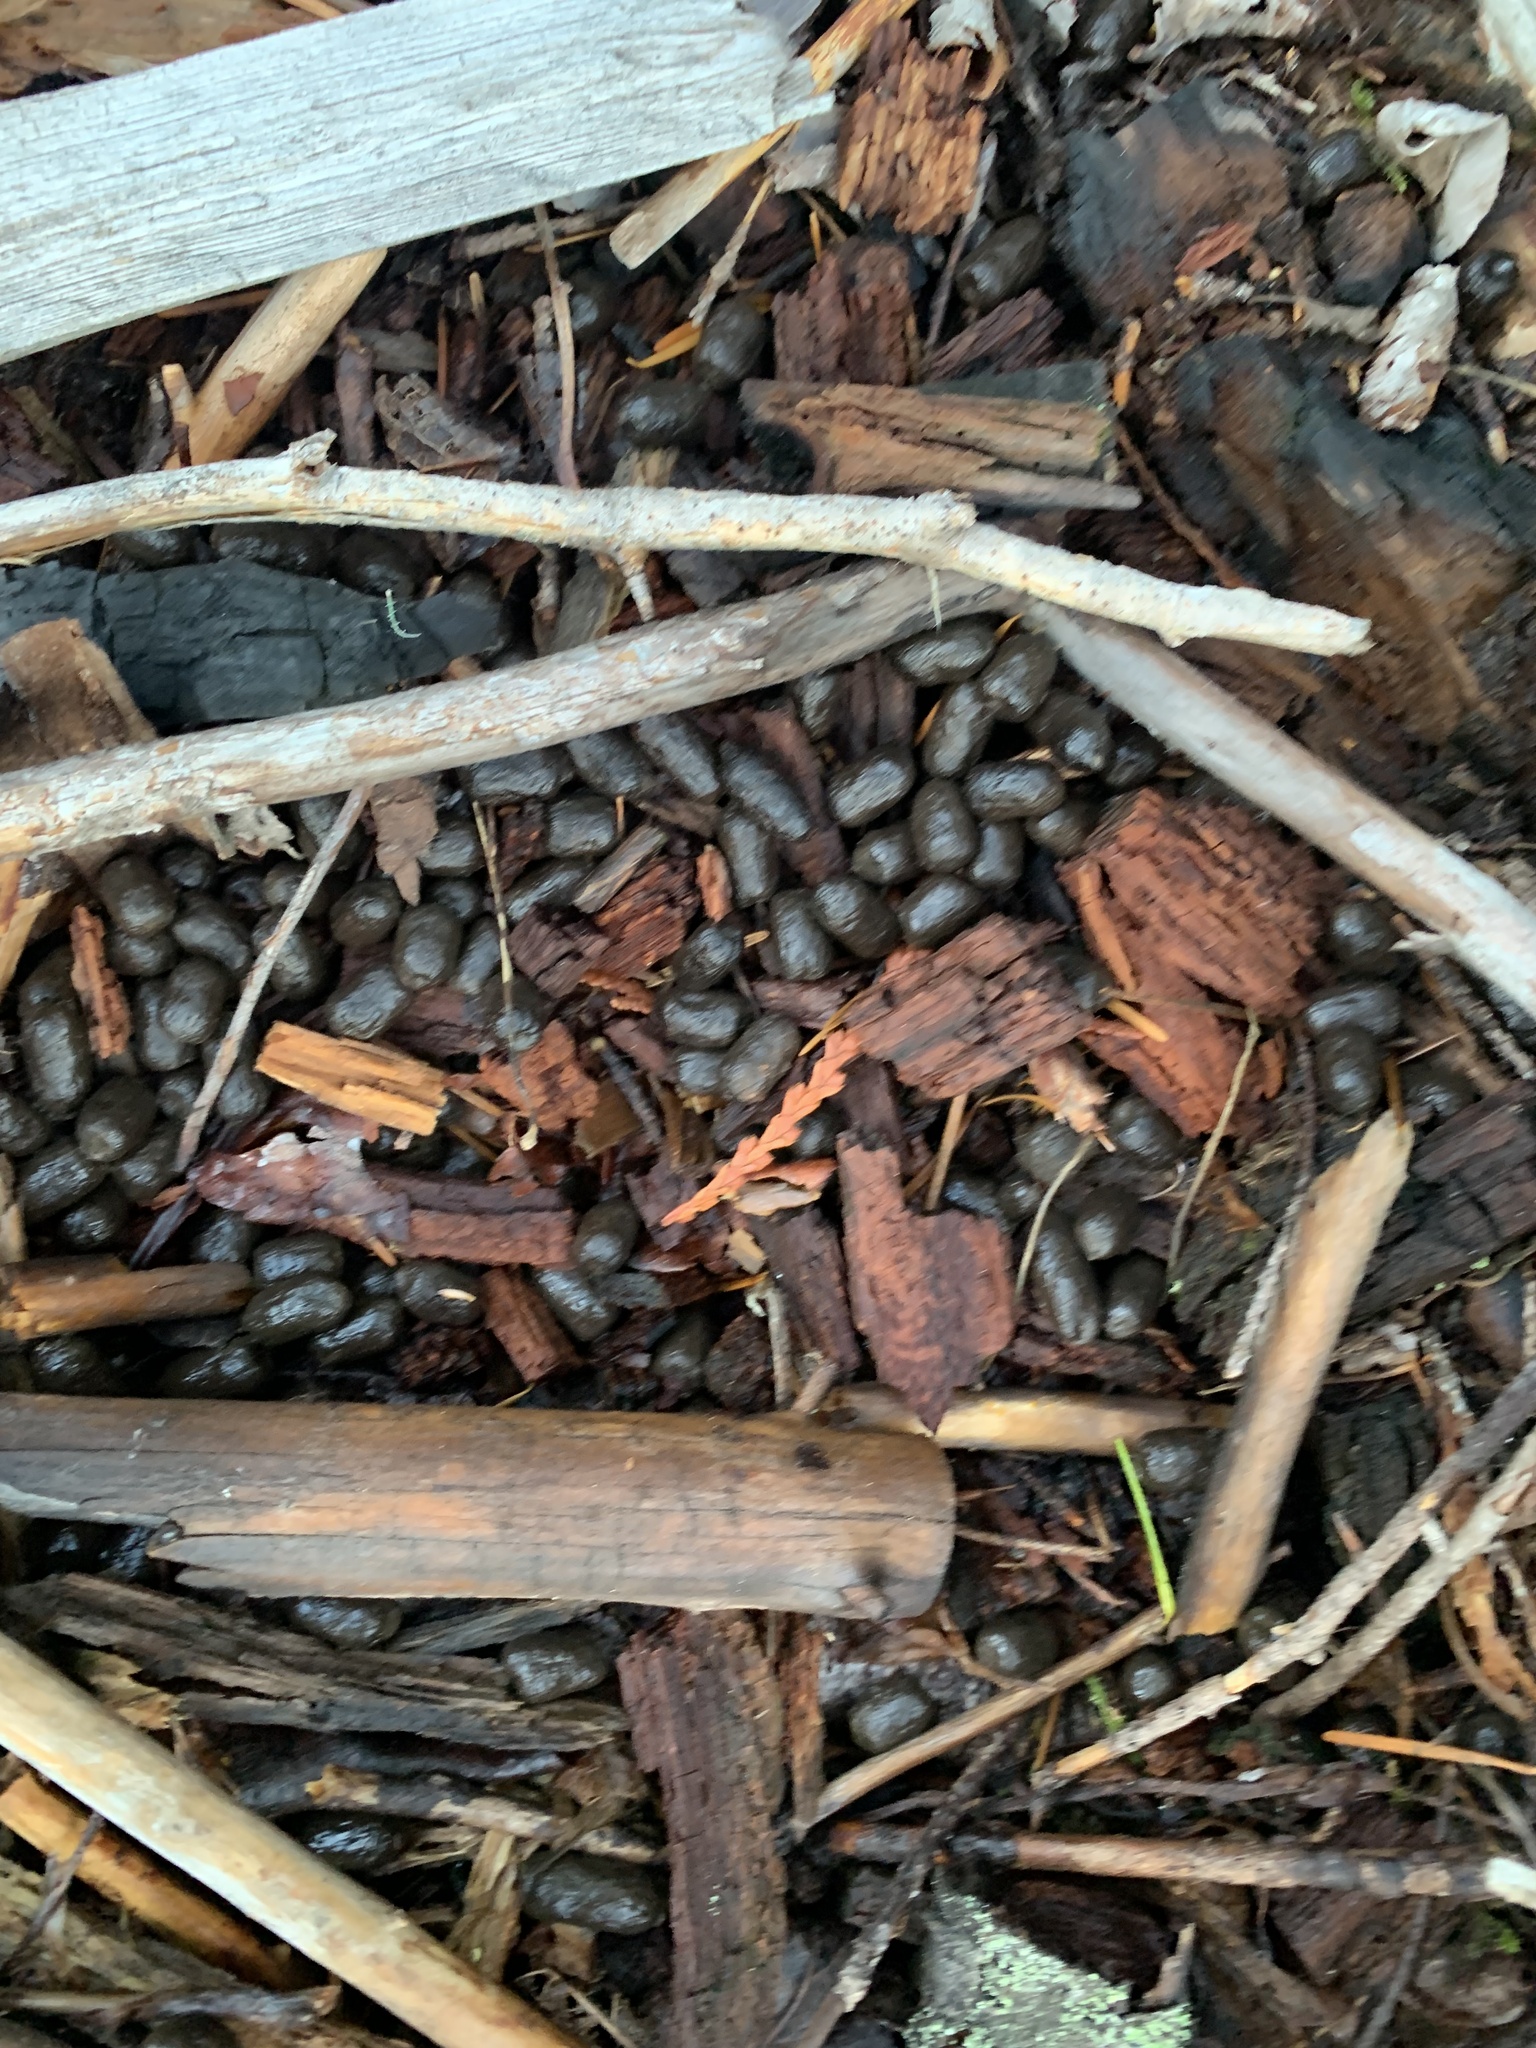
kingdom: Animalia
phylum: Chordata
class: Mammalia
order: Artiodactyla
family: Cervidae
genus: Odocoileus
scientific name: Odocoileus hemionus
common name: Mule deer
